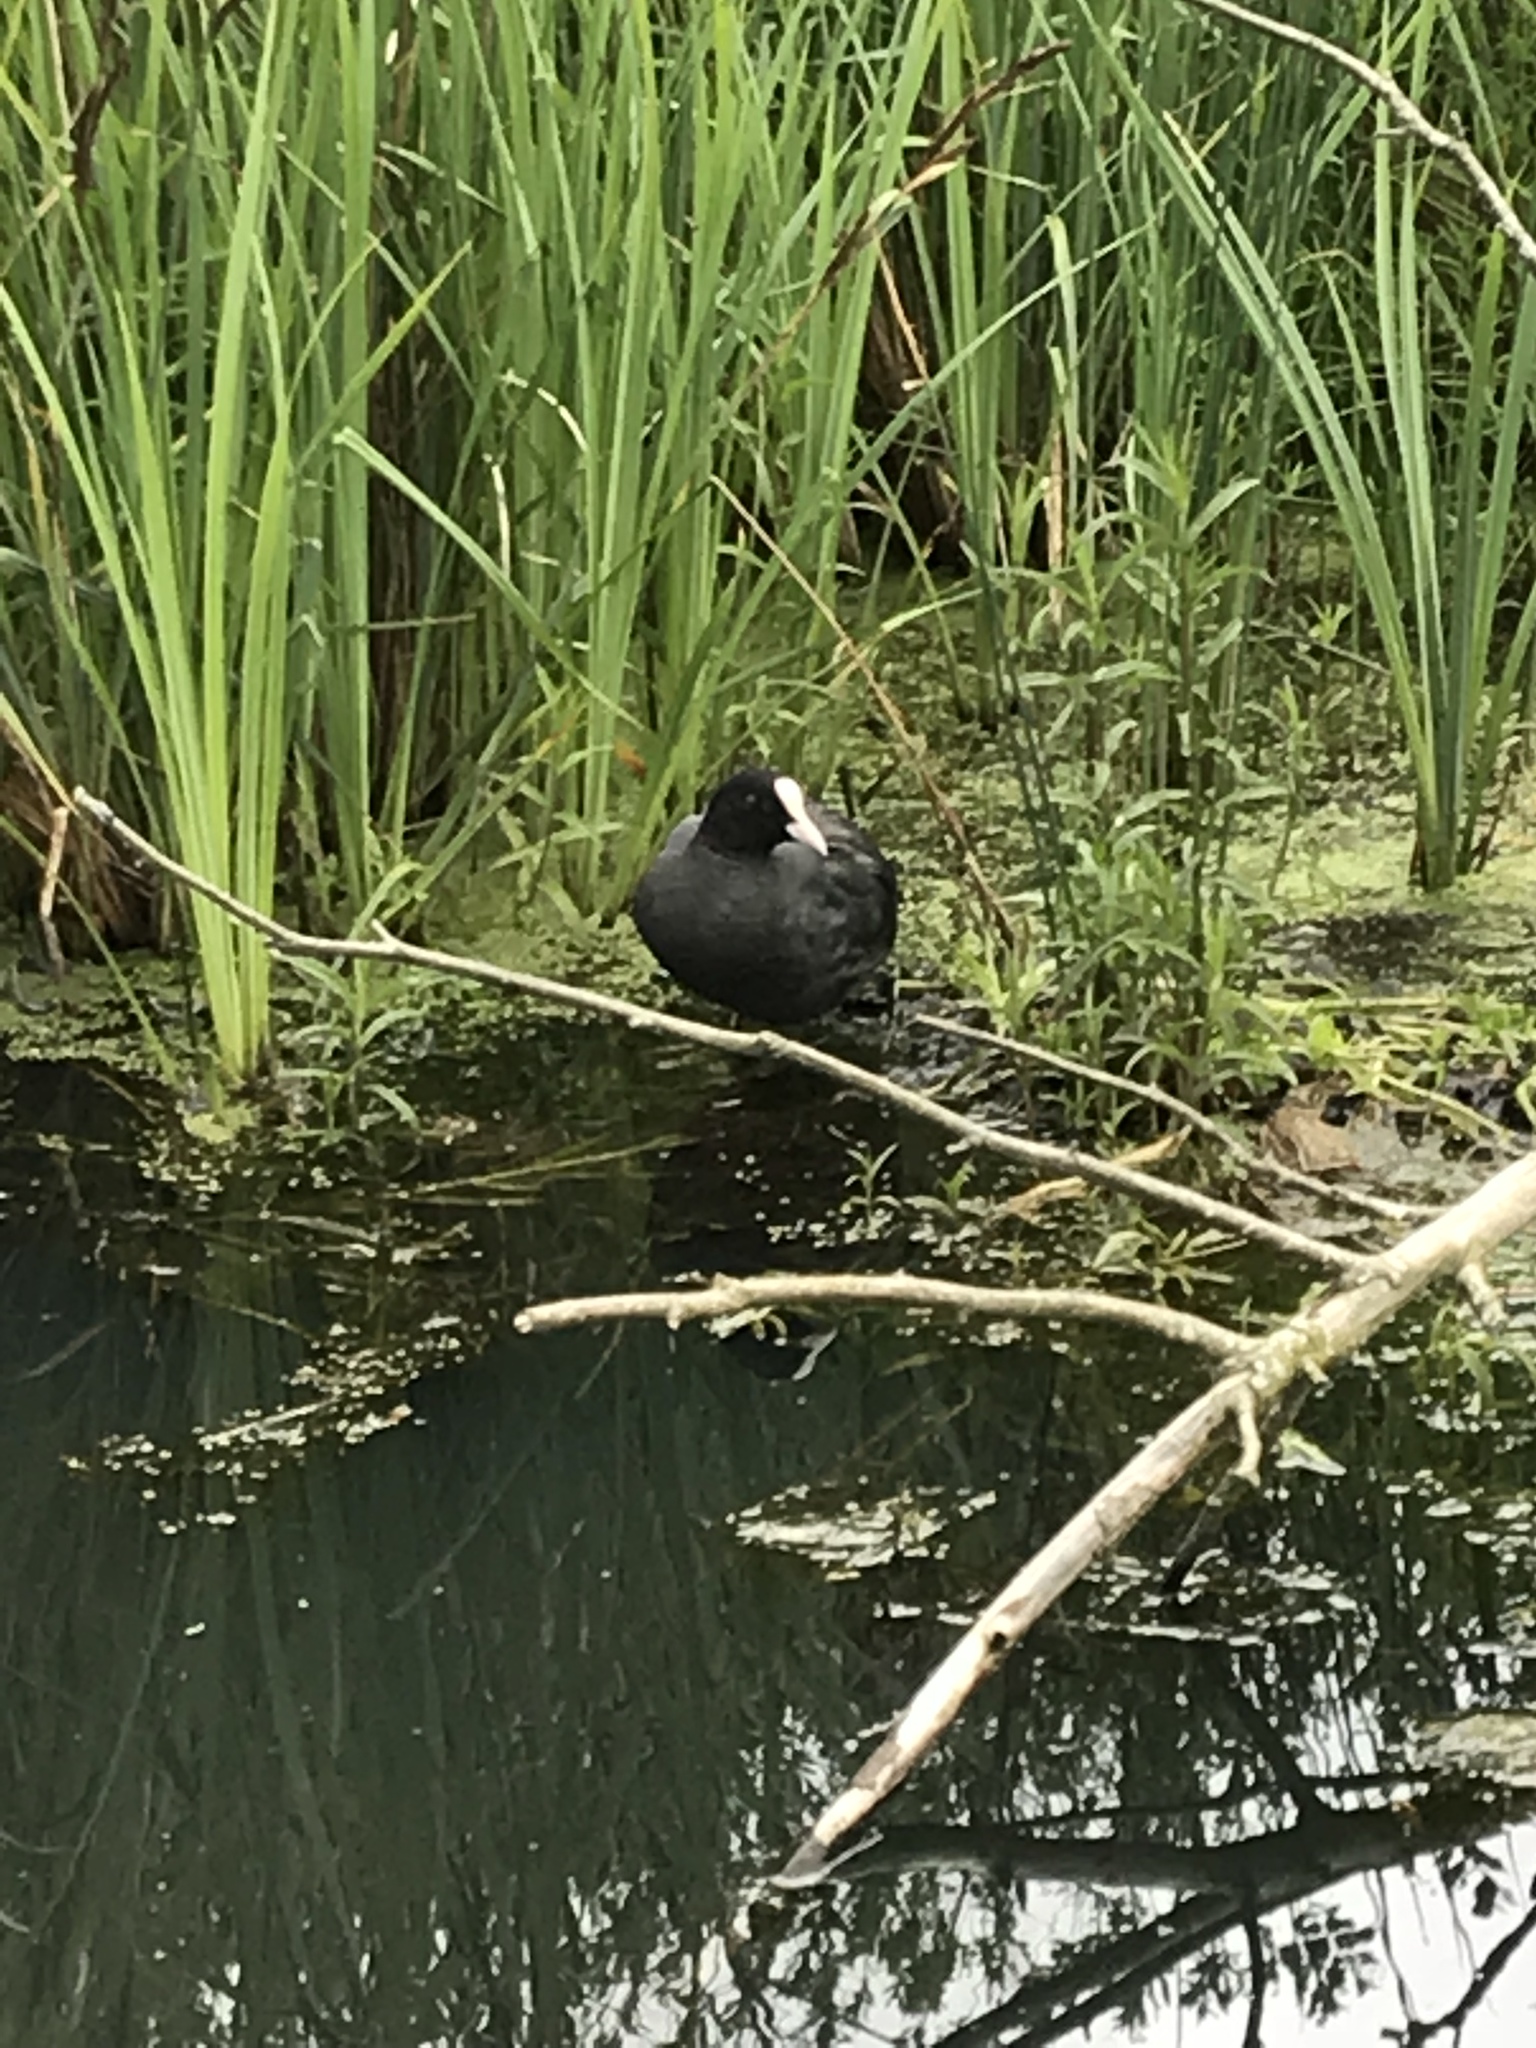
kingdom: Animalia
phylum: Chordata
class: Aves
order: Gruiformes
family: Rallidae
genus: Fulica
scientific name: Fulica atra
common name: Eurasian coot
